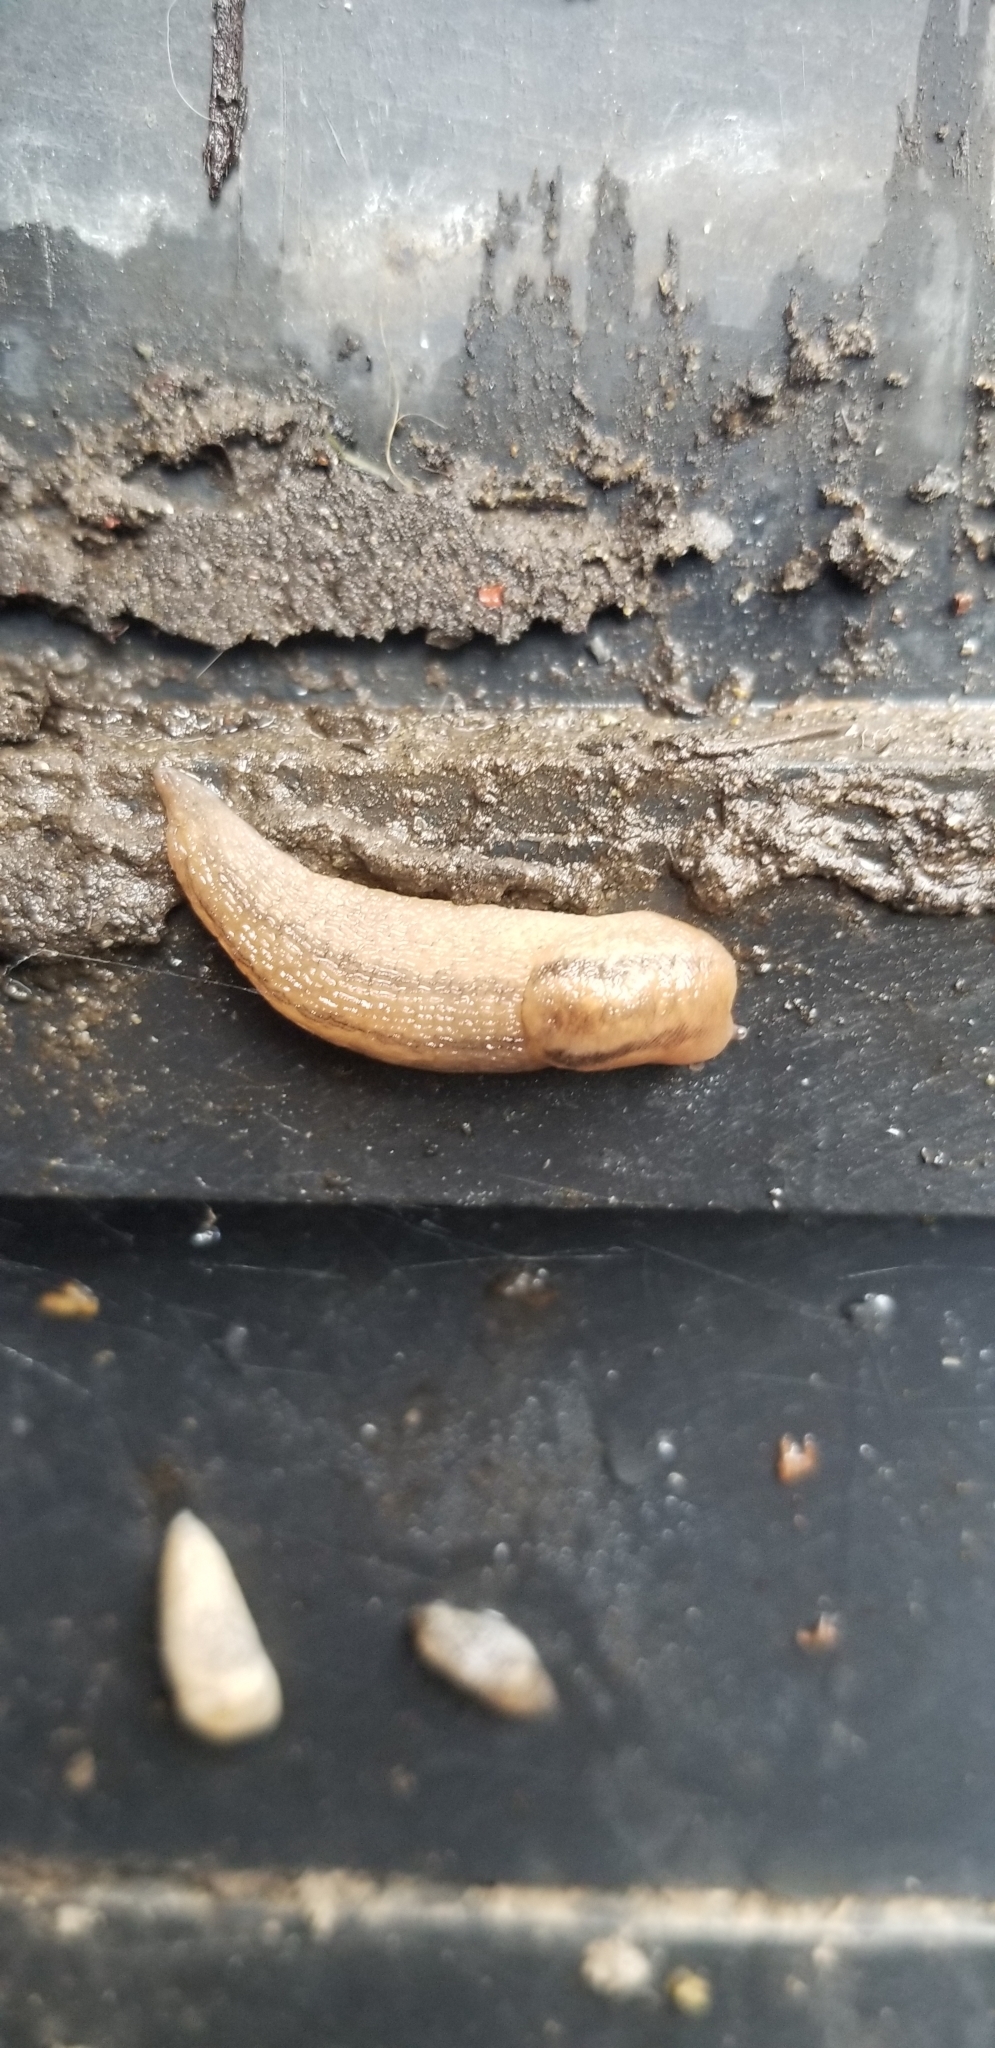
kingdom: Animalia
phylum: Mollusca
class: Gastropoda
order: Stylommatophora
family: Limacidae
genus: Ambigolimax
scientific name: Ambigolimax
